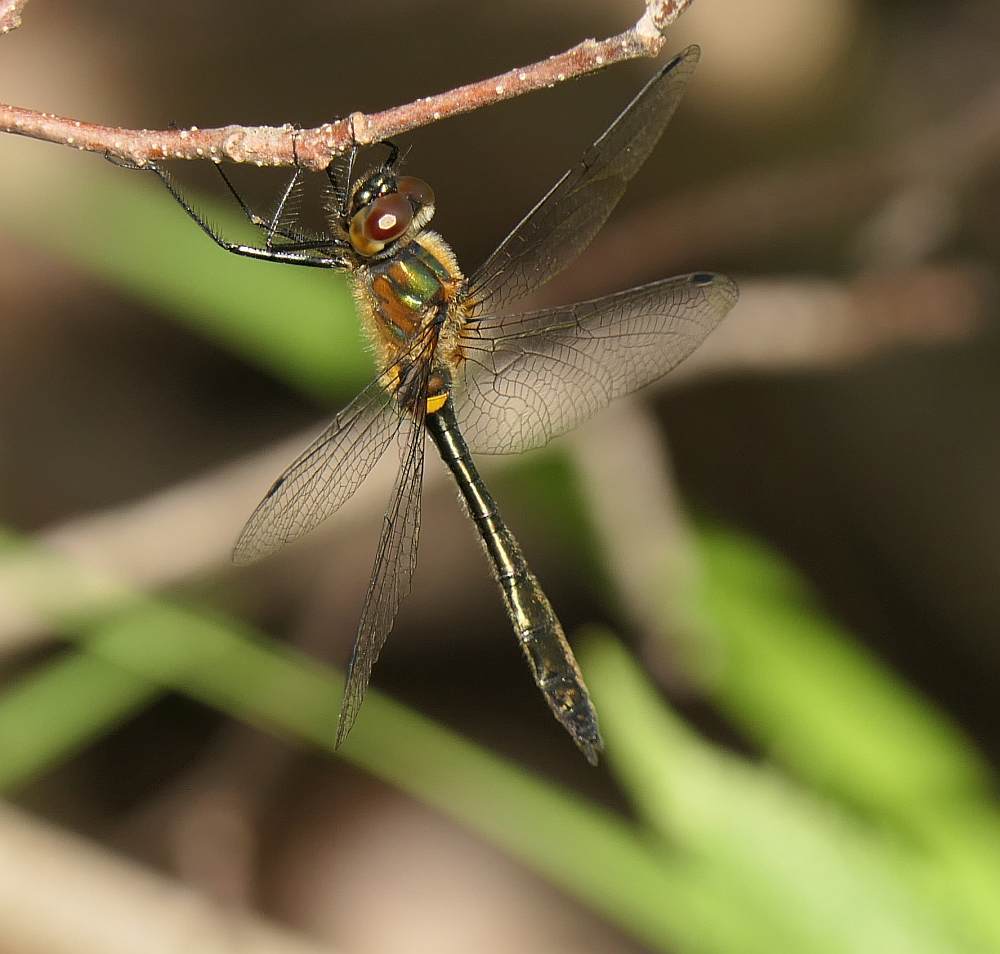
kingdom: Animalia
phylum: Arthropoda
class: Insecta
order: Odonata
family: Corduliidae
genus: Dorocordulia
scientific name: Dorocordulia libera
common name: Racket-tailed emerald
